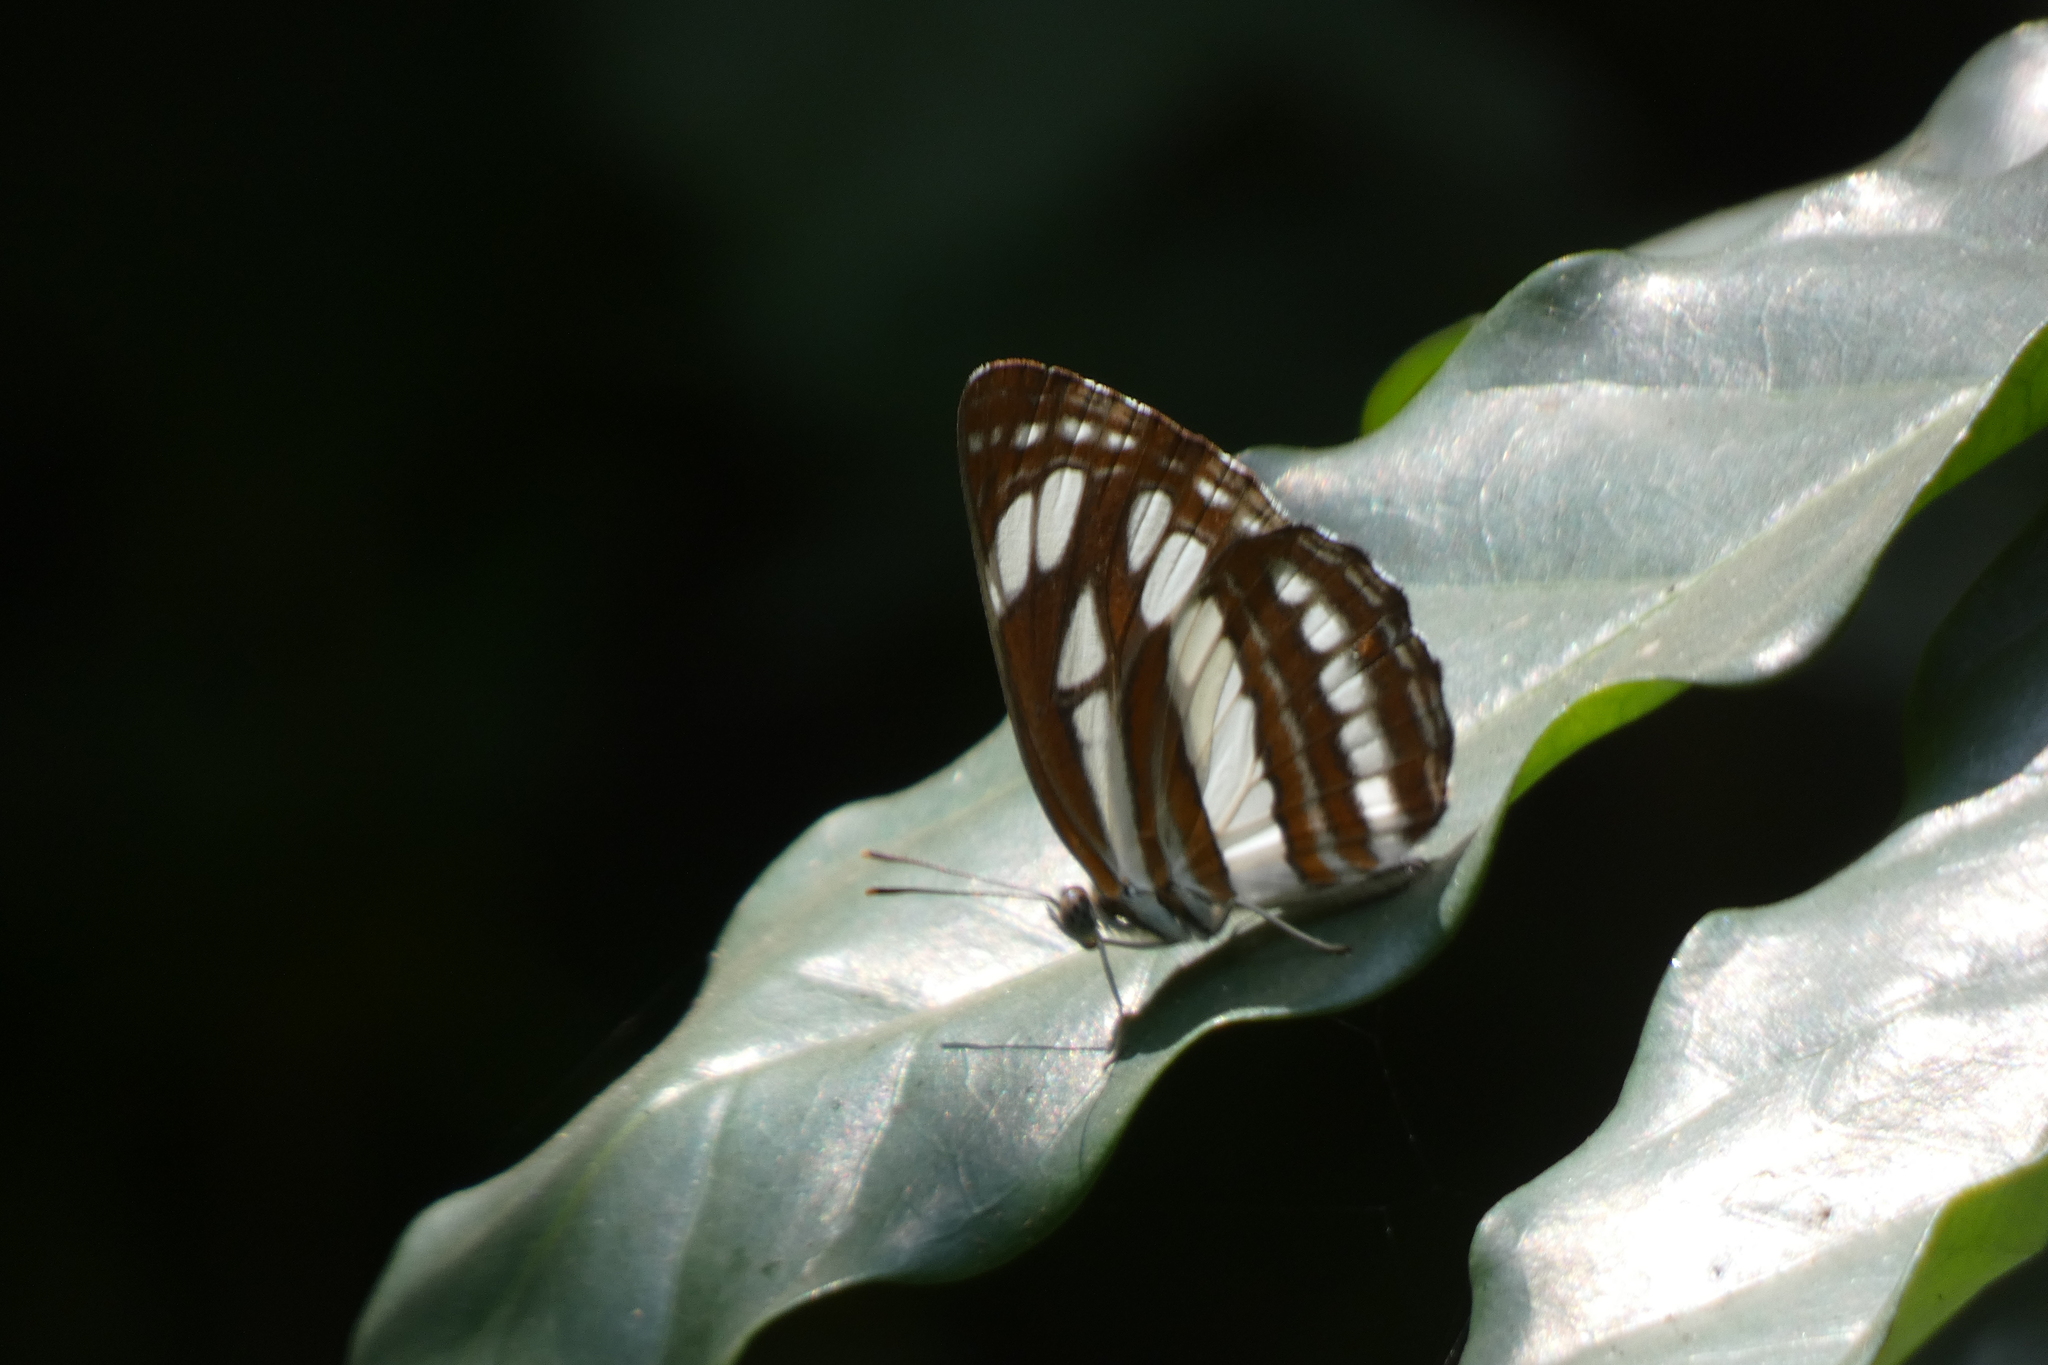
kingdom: Animalia
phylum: Arthropoda
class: Insecta
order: Lepidoptera
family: Nymphalidae
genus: Neptis
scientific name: Neptis hylas
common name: Common sailer
